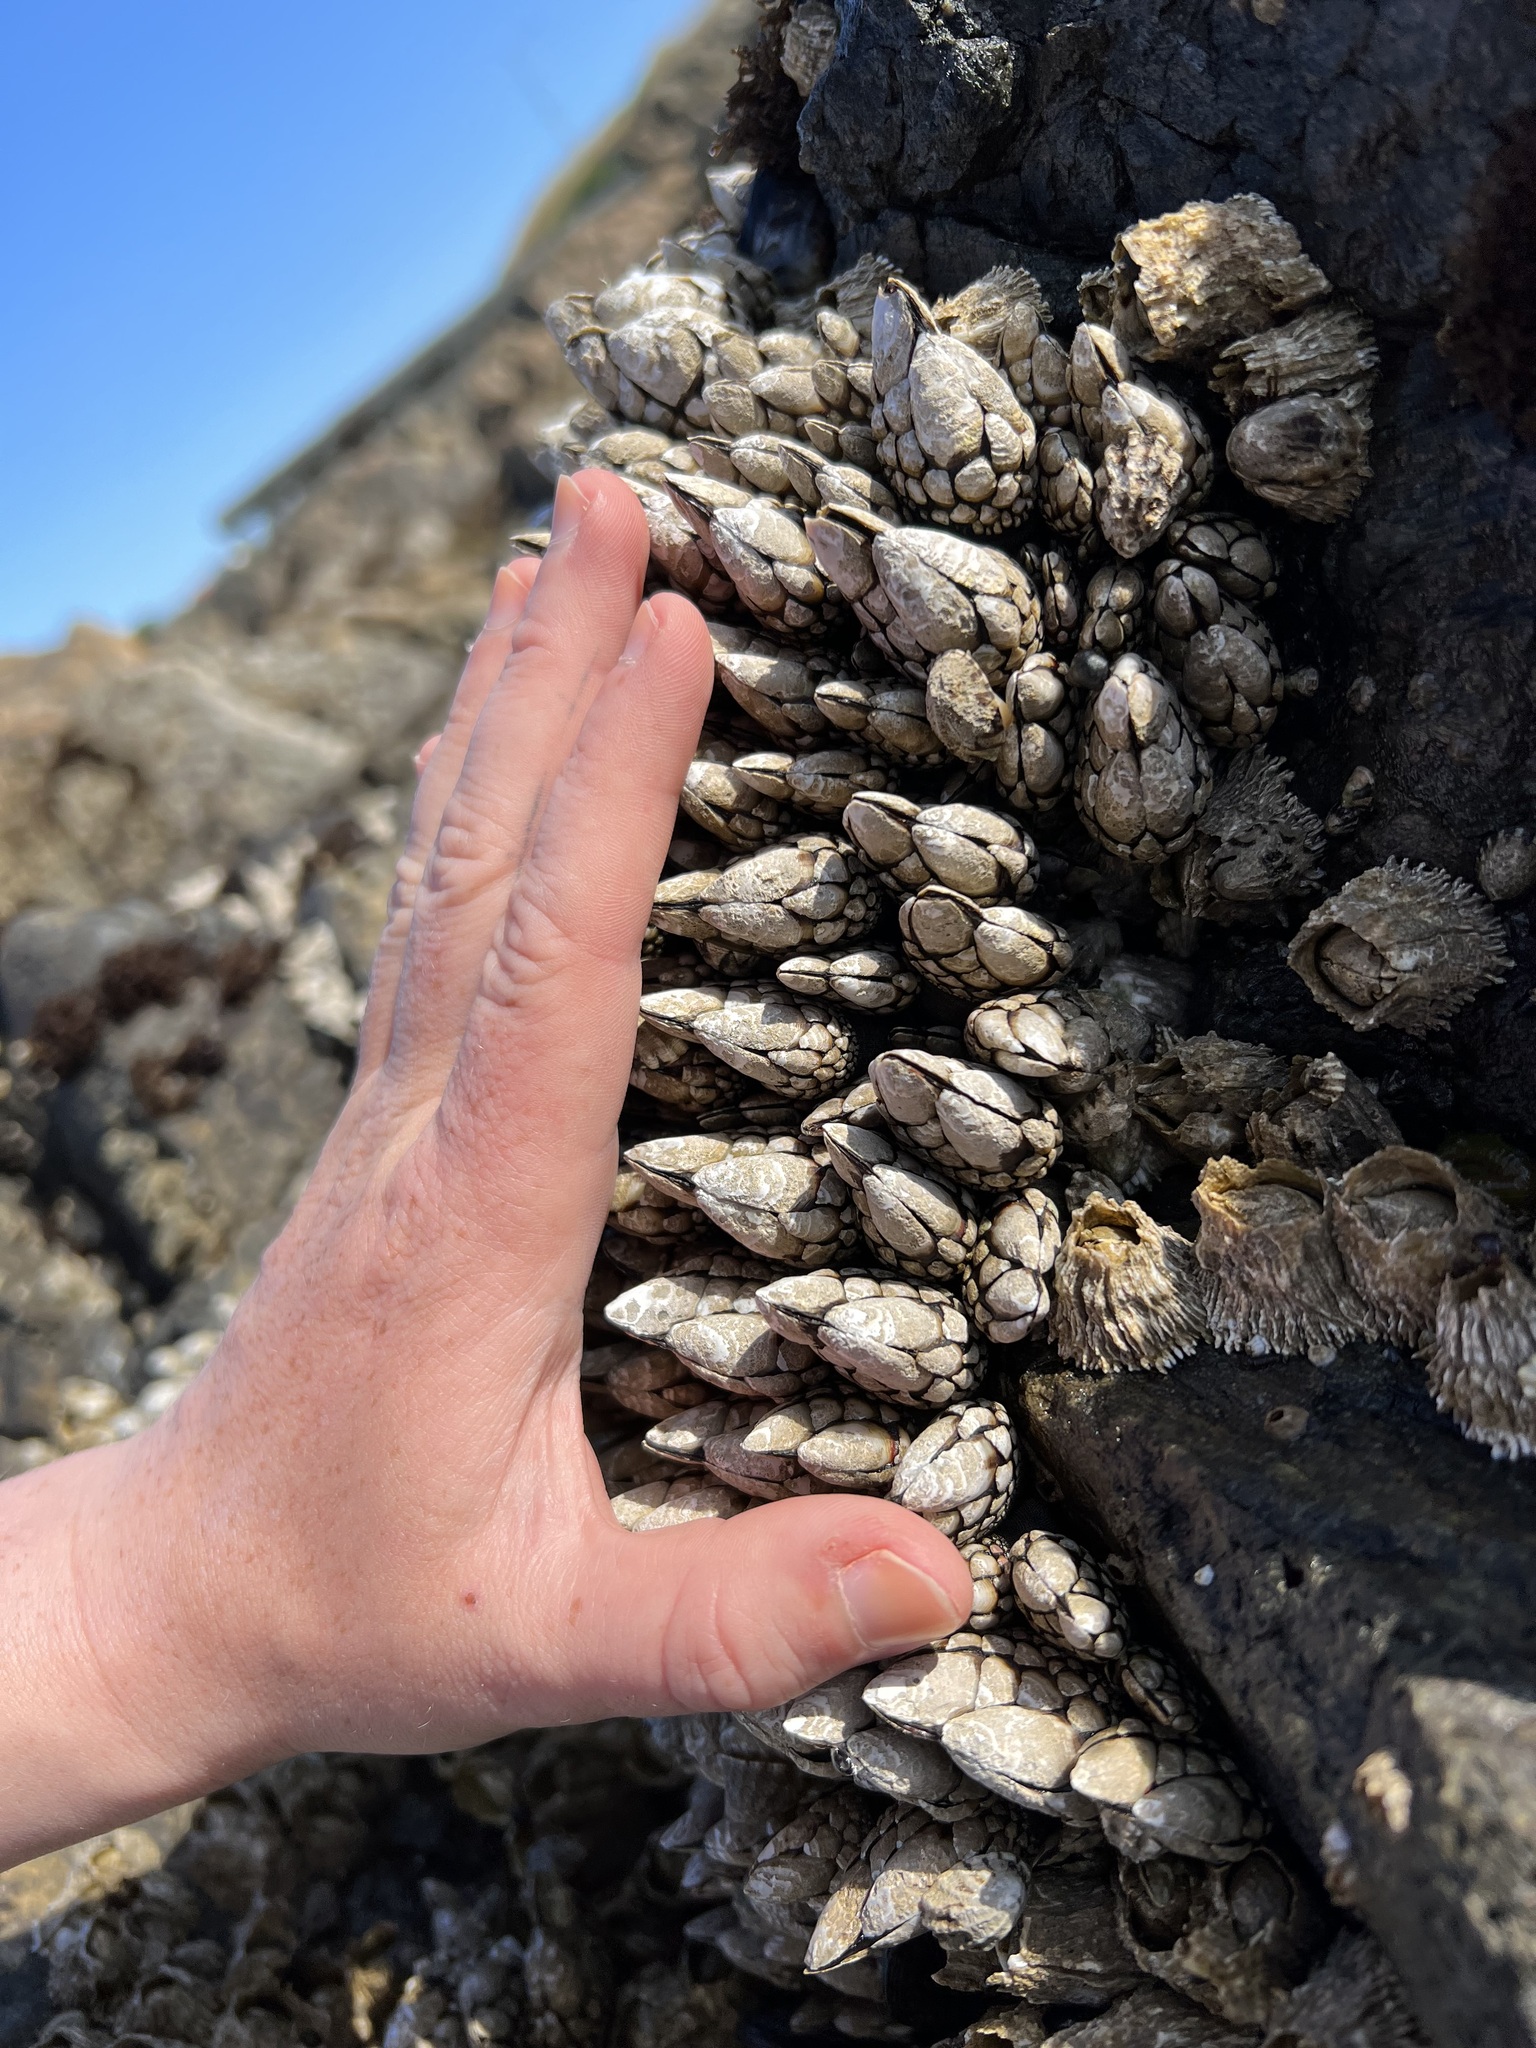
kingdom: Animalia
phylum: Arthropoda
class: Maxillopoda
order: Pedunculata
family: Pollicipedidae
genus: Pollicipes
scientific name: Pollicipes polymerus
